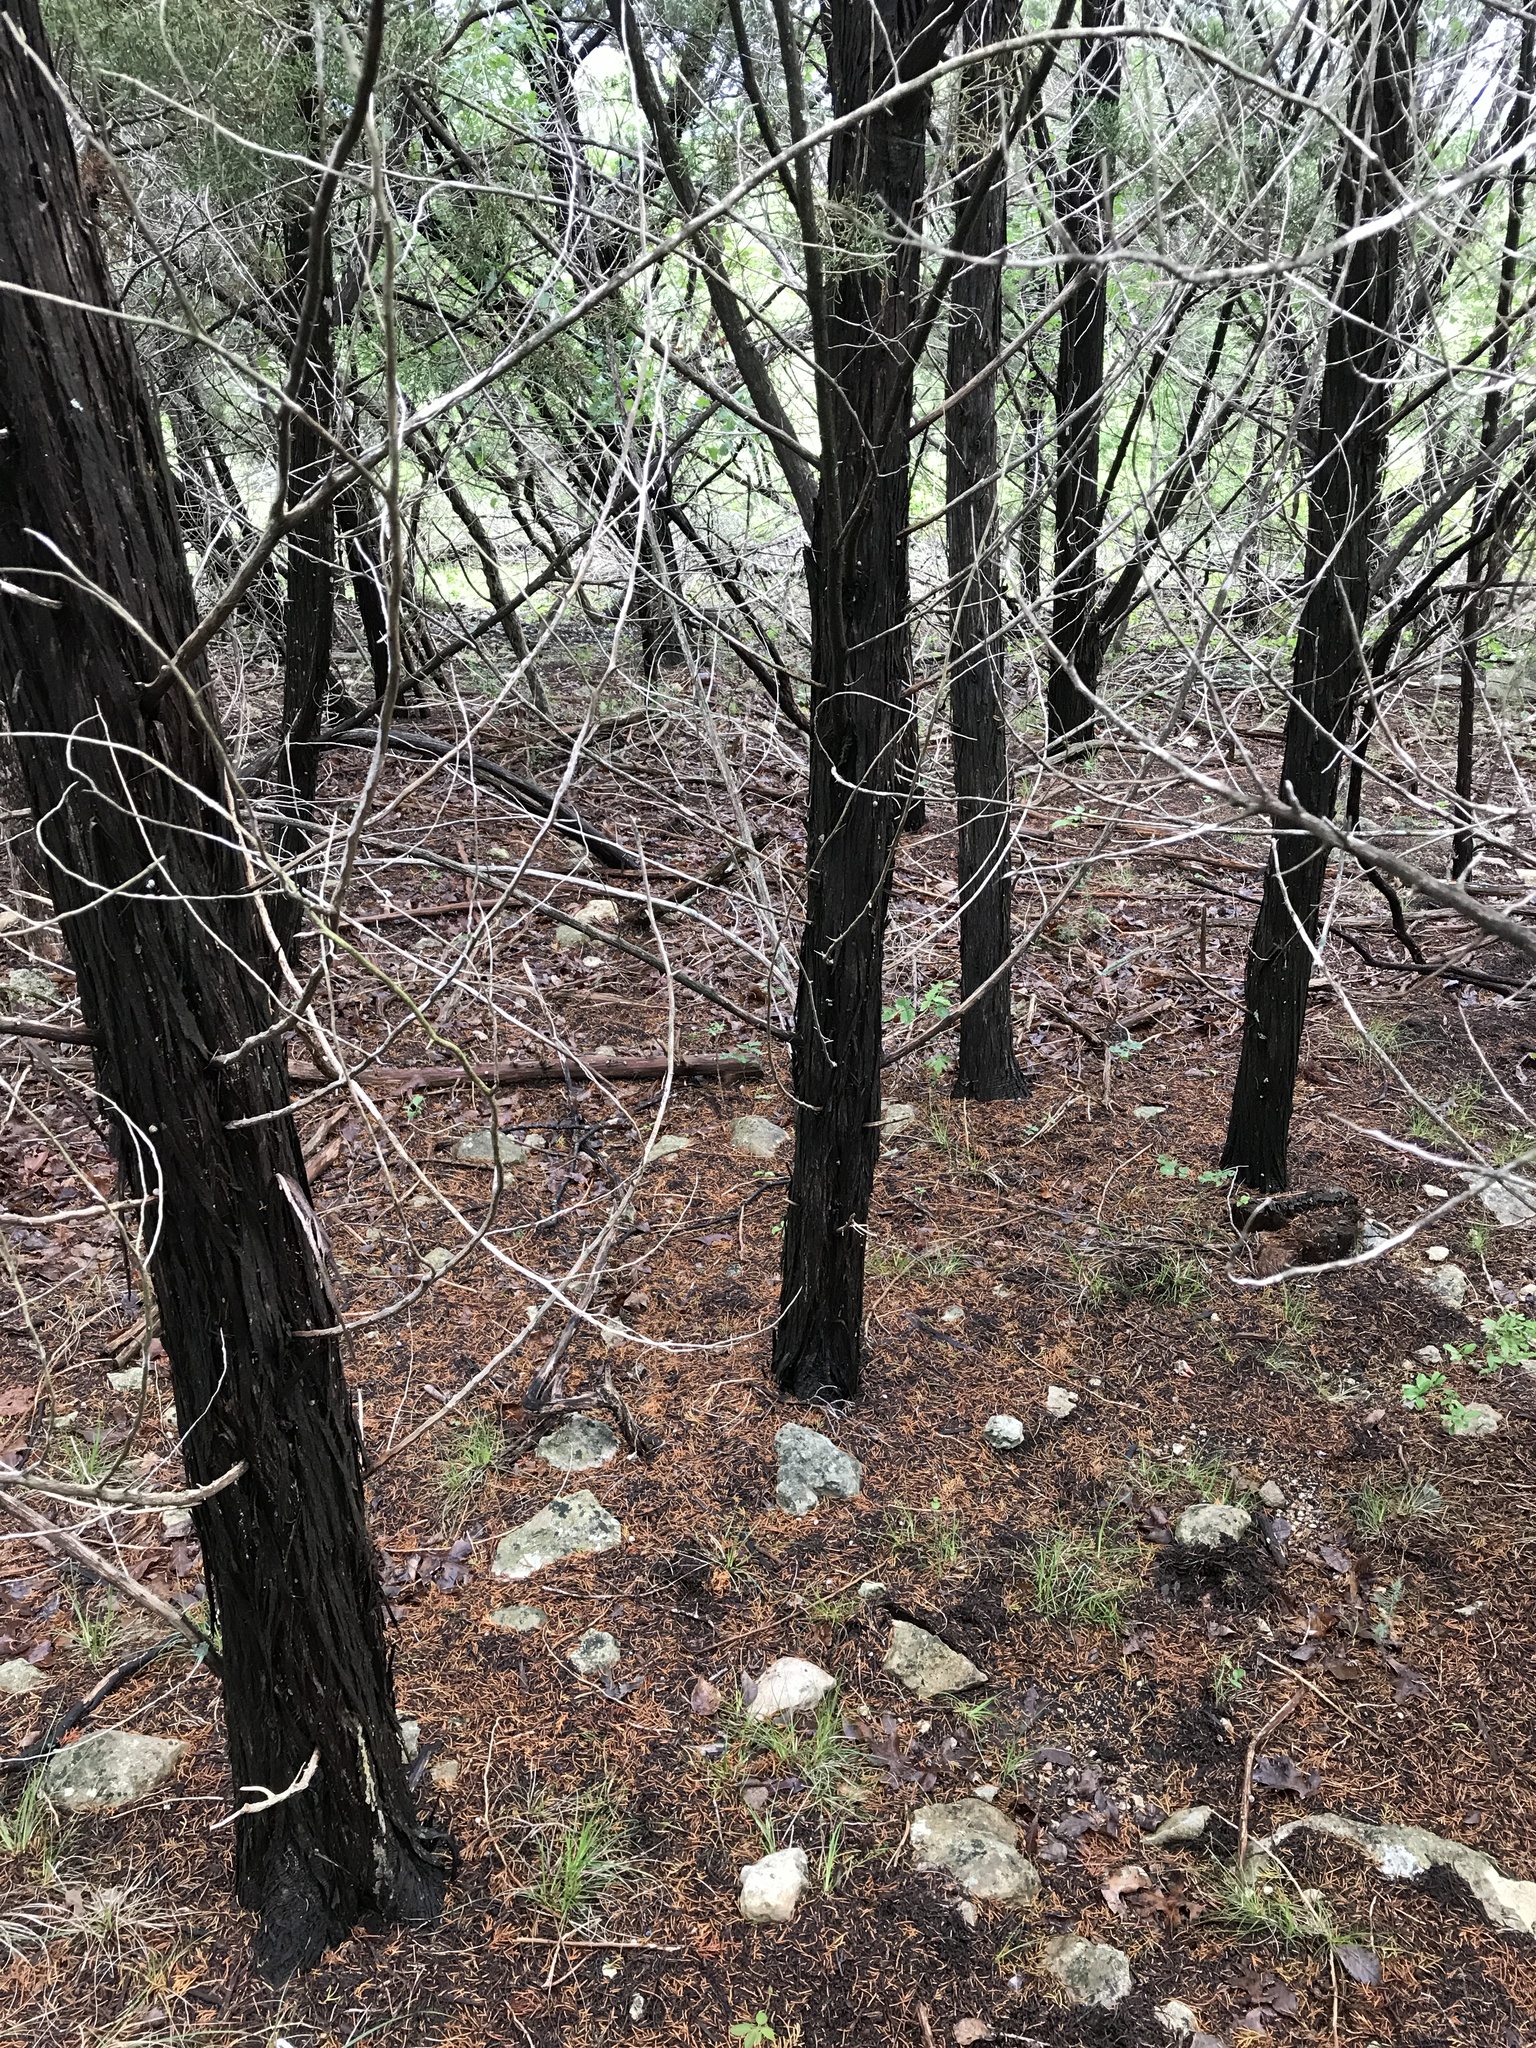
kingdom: Plantae
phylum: Tracheophyta
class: Pinopsida
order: Pinales
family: Cupressaceae
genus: Juniperus
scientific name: Juniperus ashei
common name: Mexican juniper
